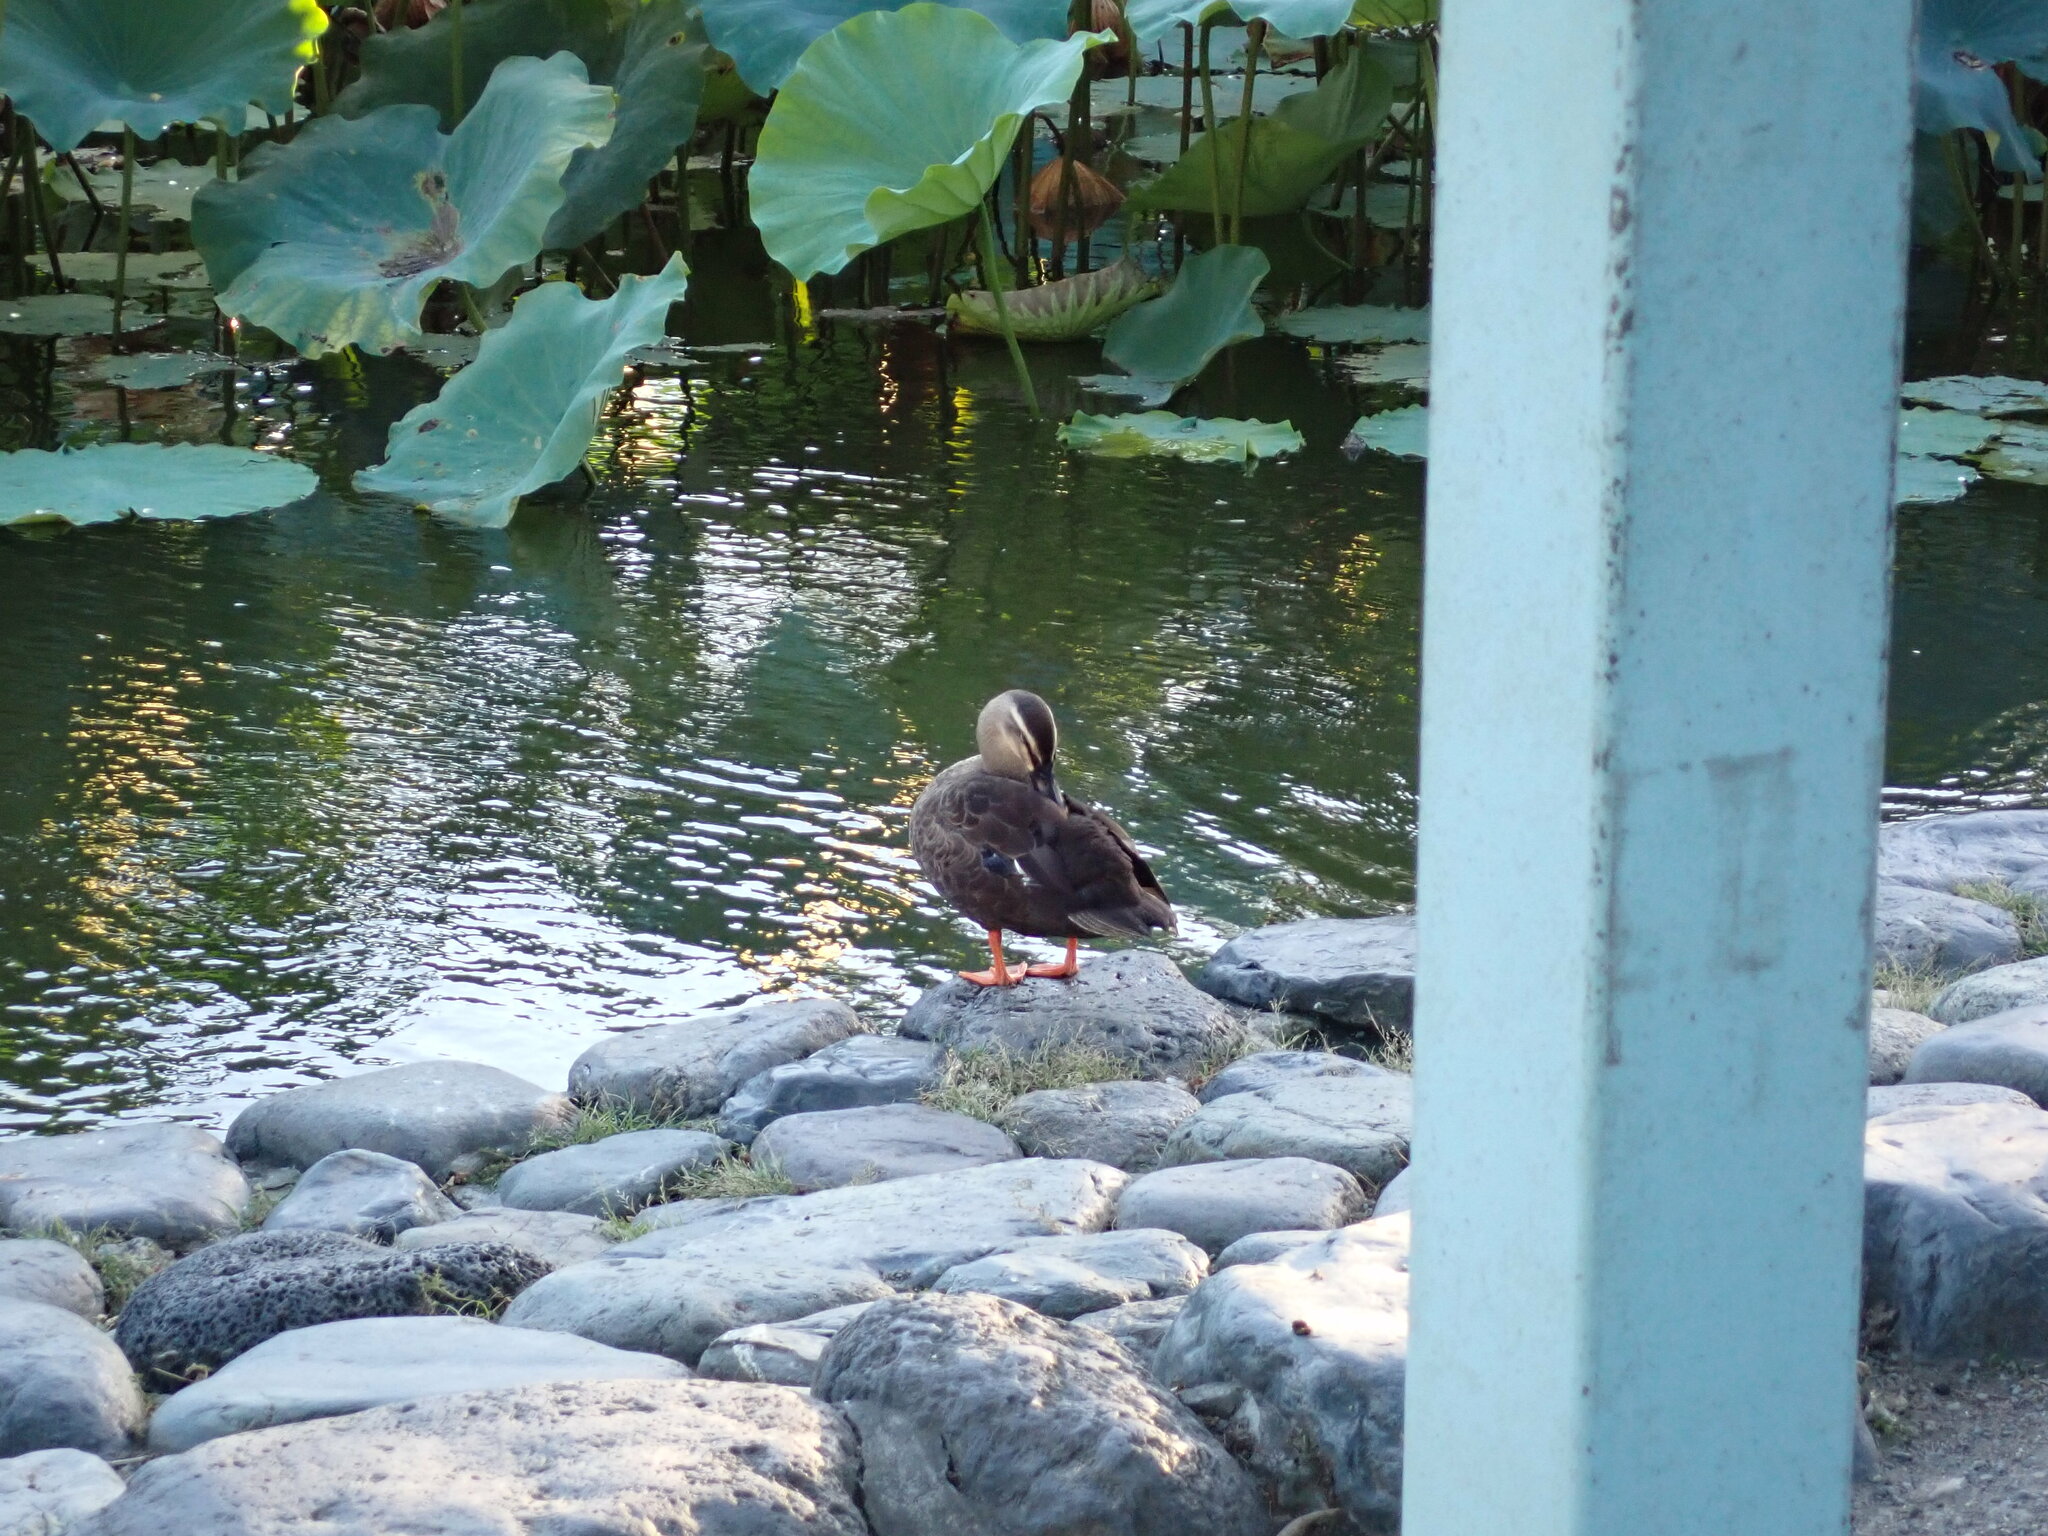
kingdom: Animalia
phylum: Chordata
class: Aves
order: Anseriformes
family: Anatidae
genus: Anas
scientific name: Anas zonorhyncha
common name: Eastern spot-billed duck
